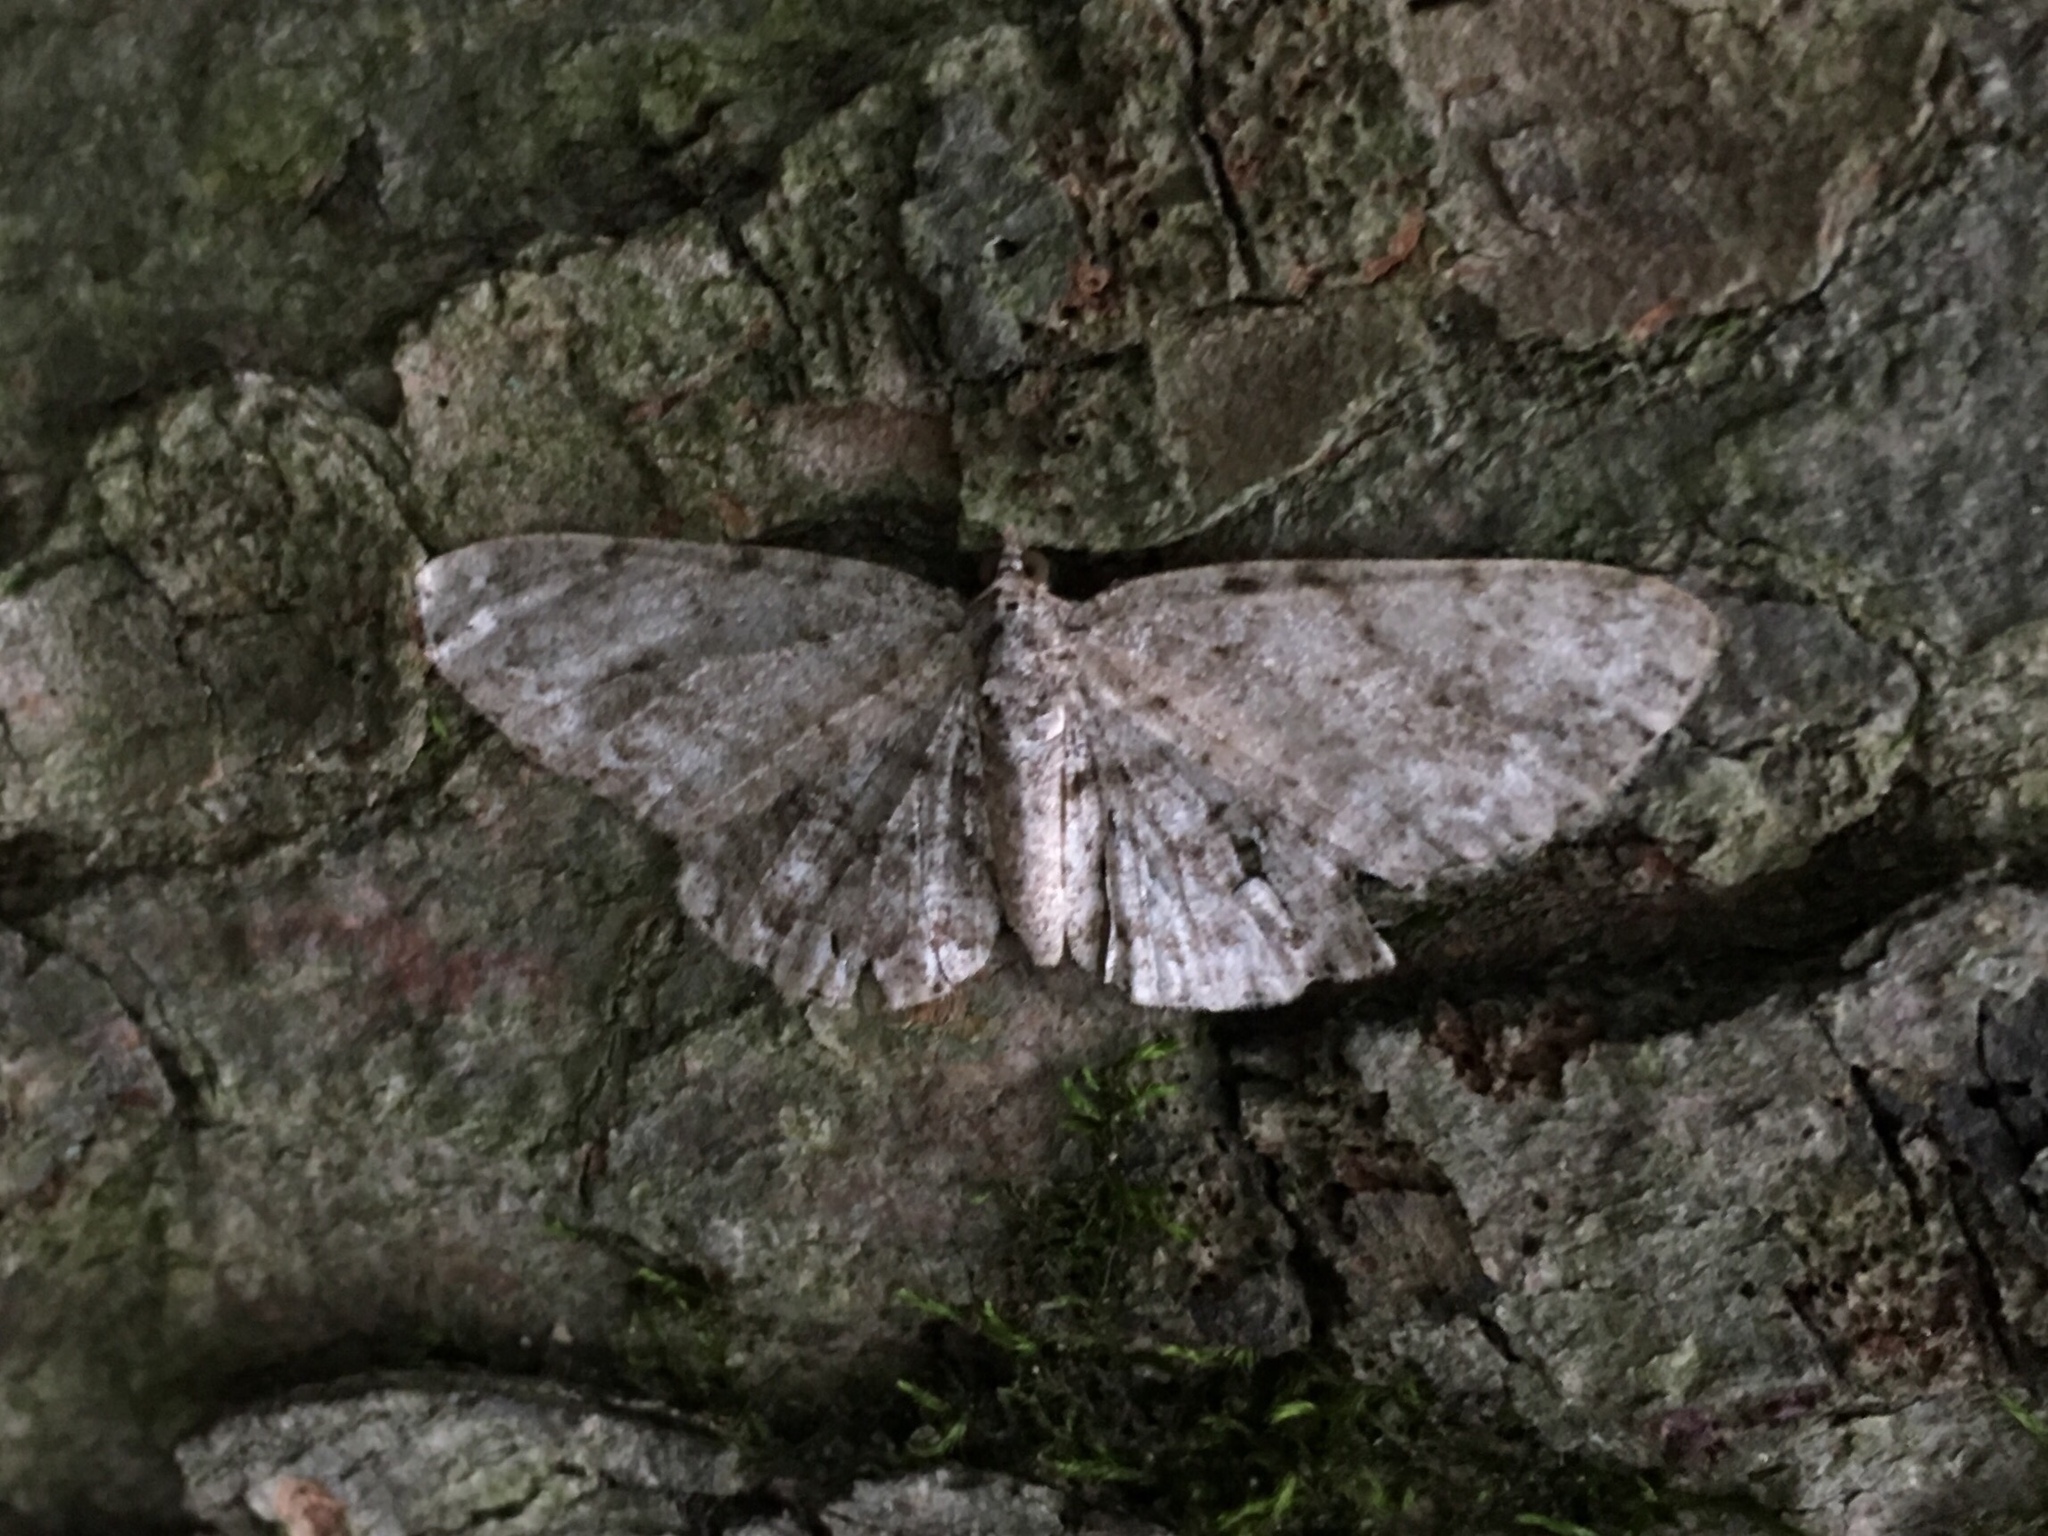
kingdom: Animalia
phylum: Arthropoda
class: Insecta
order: Lepidoptera
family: Geometridae
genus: Protoboarmia
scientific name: Protoboarmia porcelaria
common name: Porcelain gray
